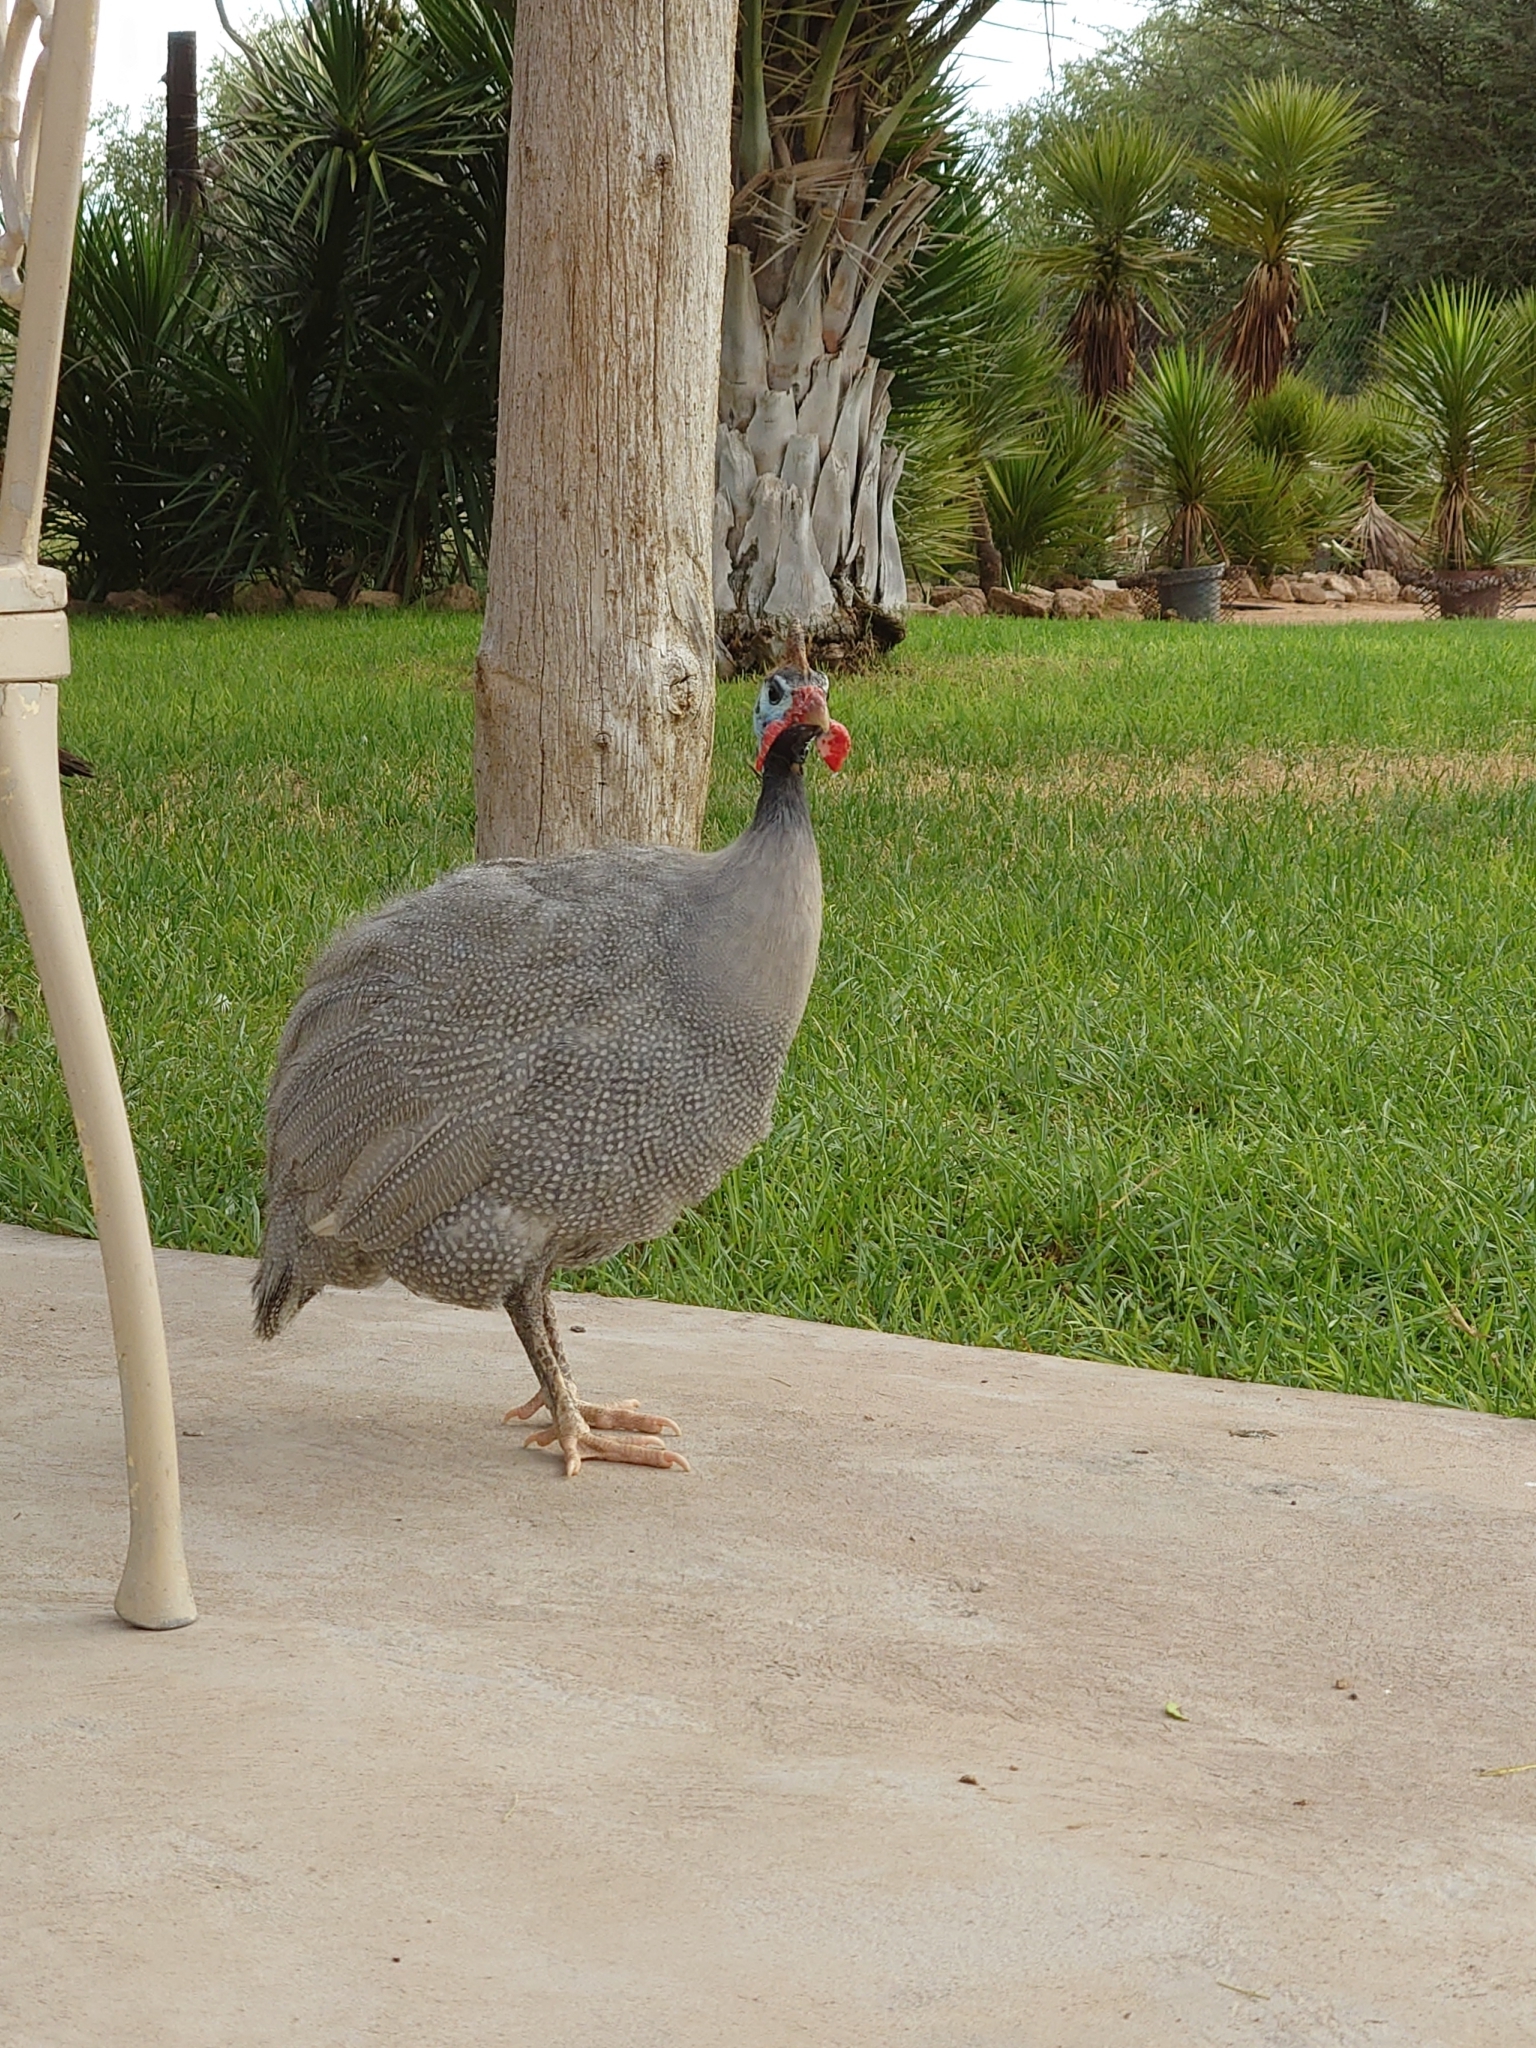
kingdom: Animalia
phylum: Chordata
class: Aves
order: Galliformes
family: Numididae
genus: Numida
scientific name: Numida meleagris
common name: Helmeted guineafowl
